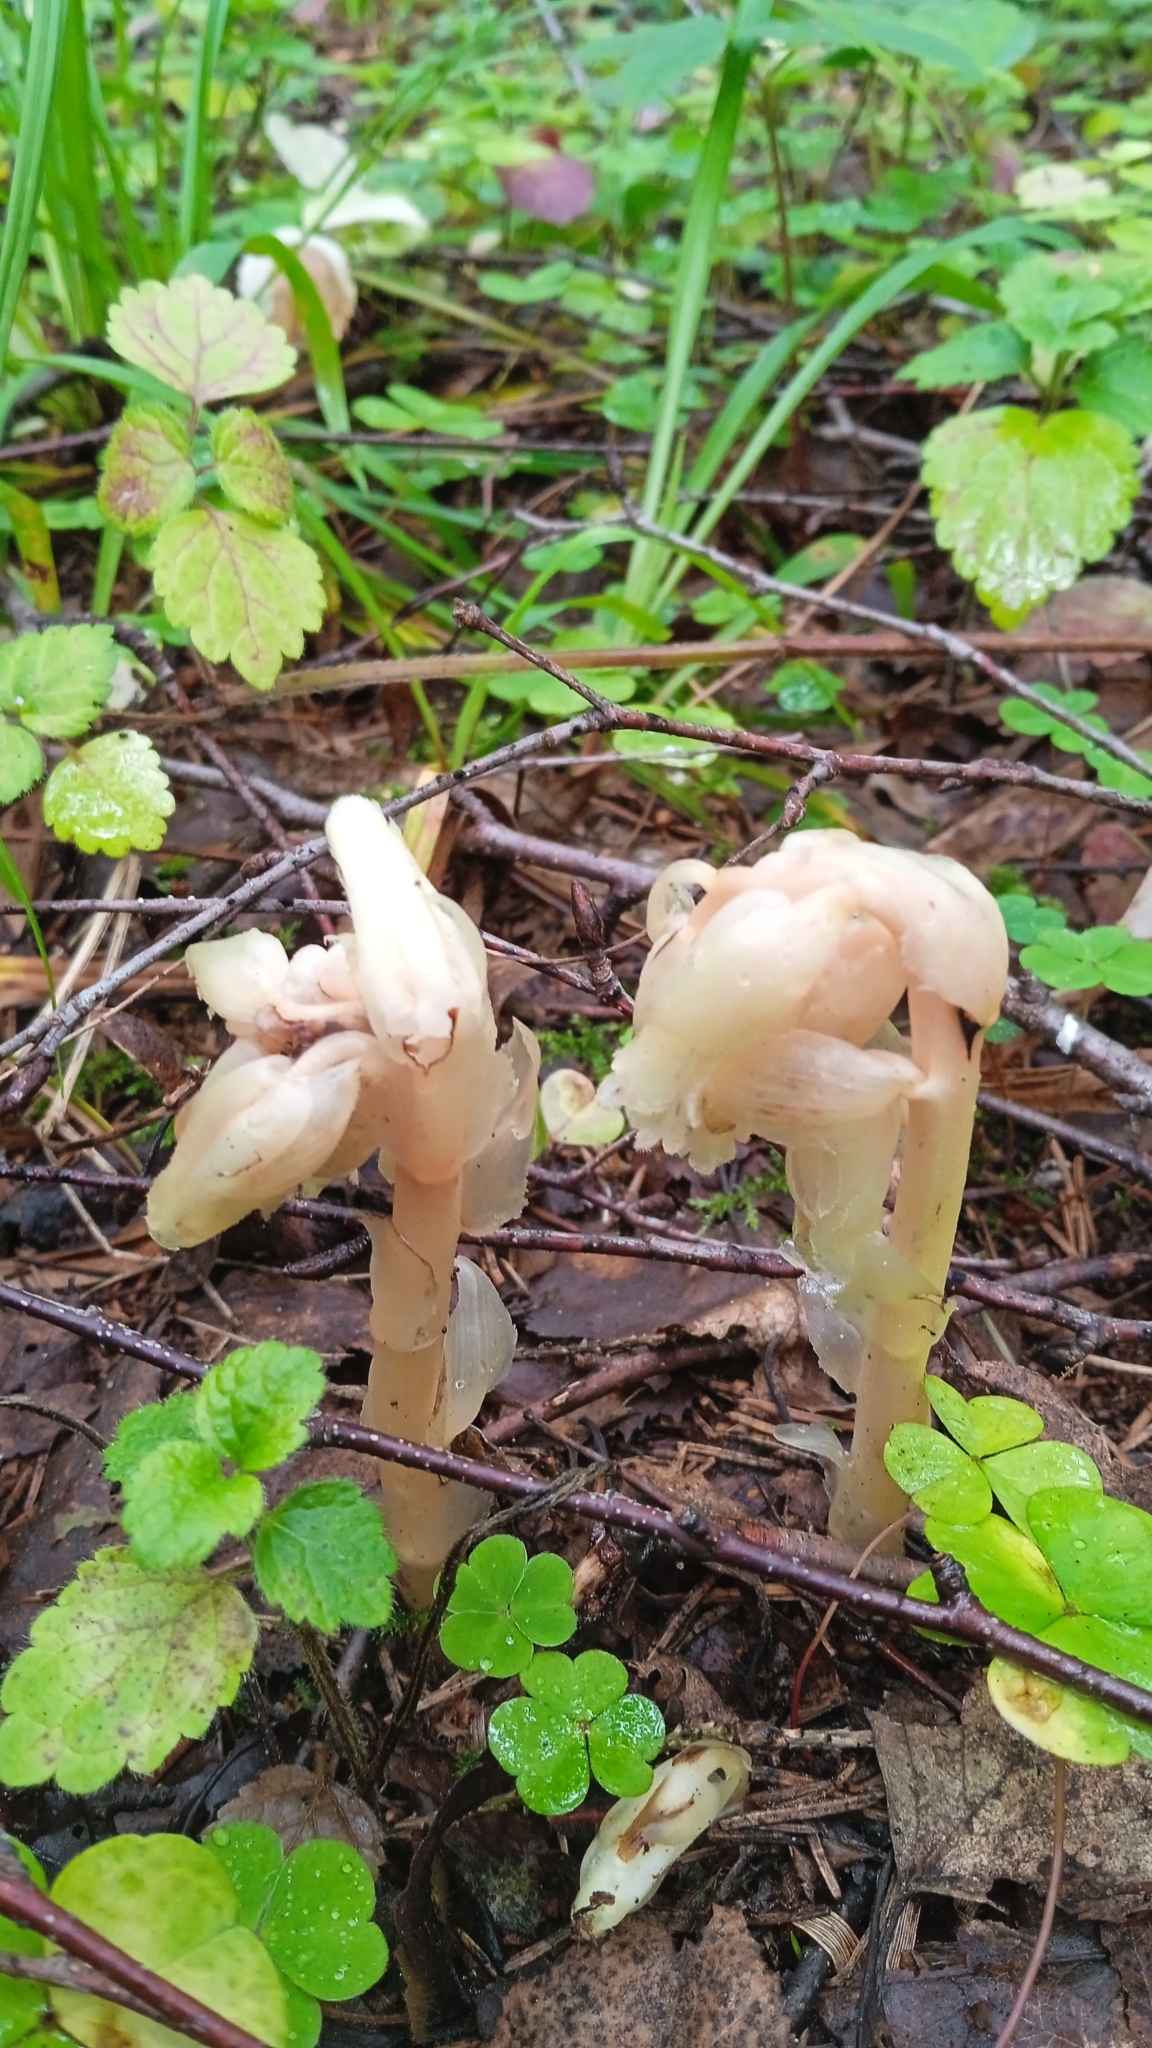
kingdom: Plantae
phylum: Tracheophyta
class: Magnoliopsida
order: Ericales
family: Ericaceae
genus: Hypopitys
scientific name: Hypopitys monotropa
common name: Yellow bird's-nest
